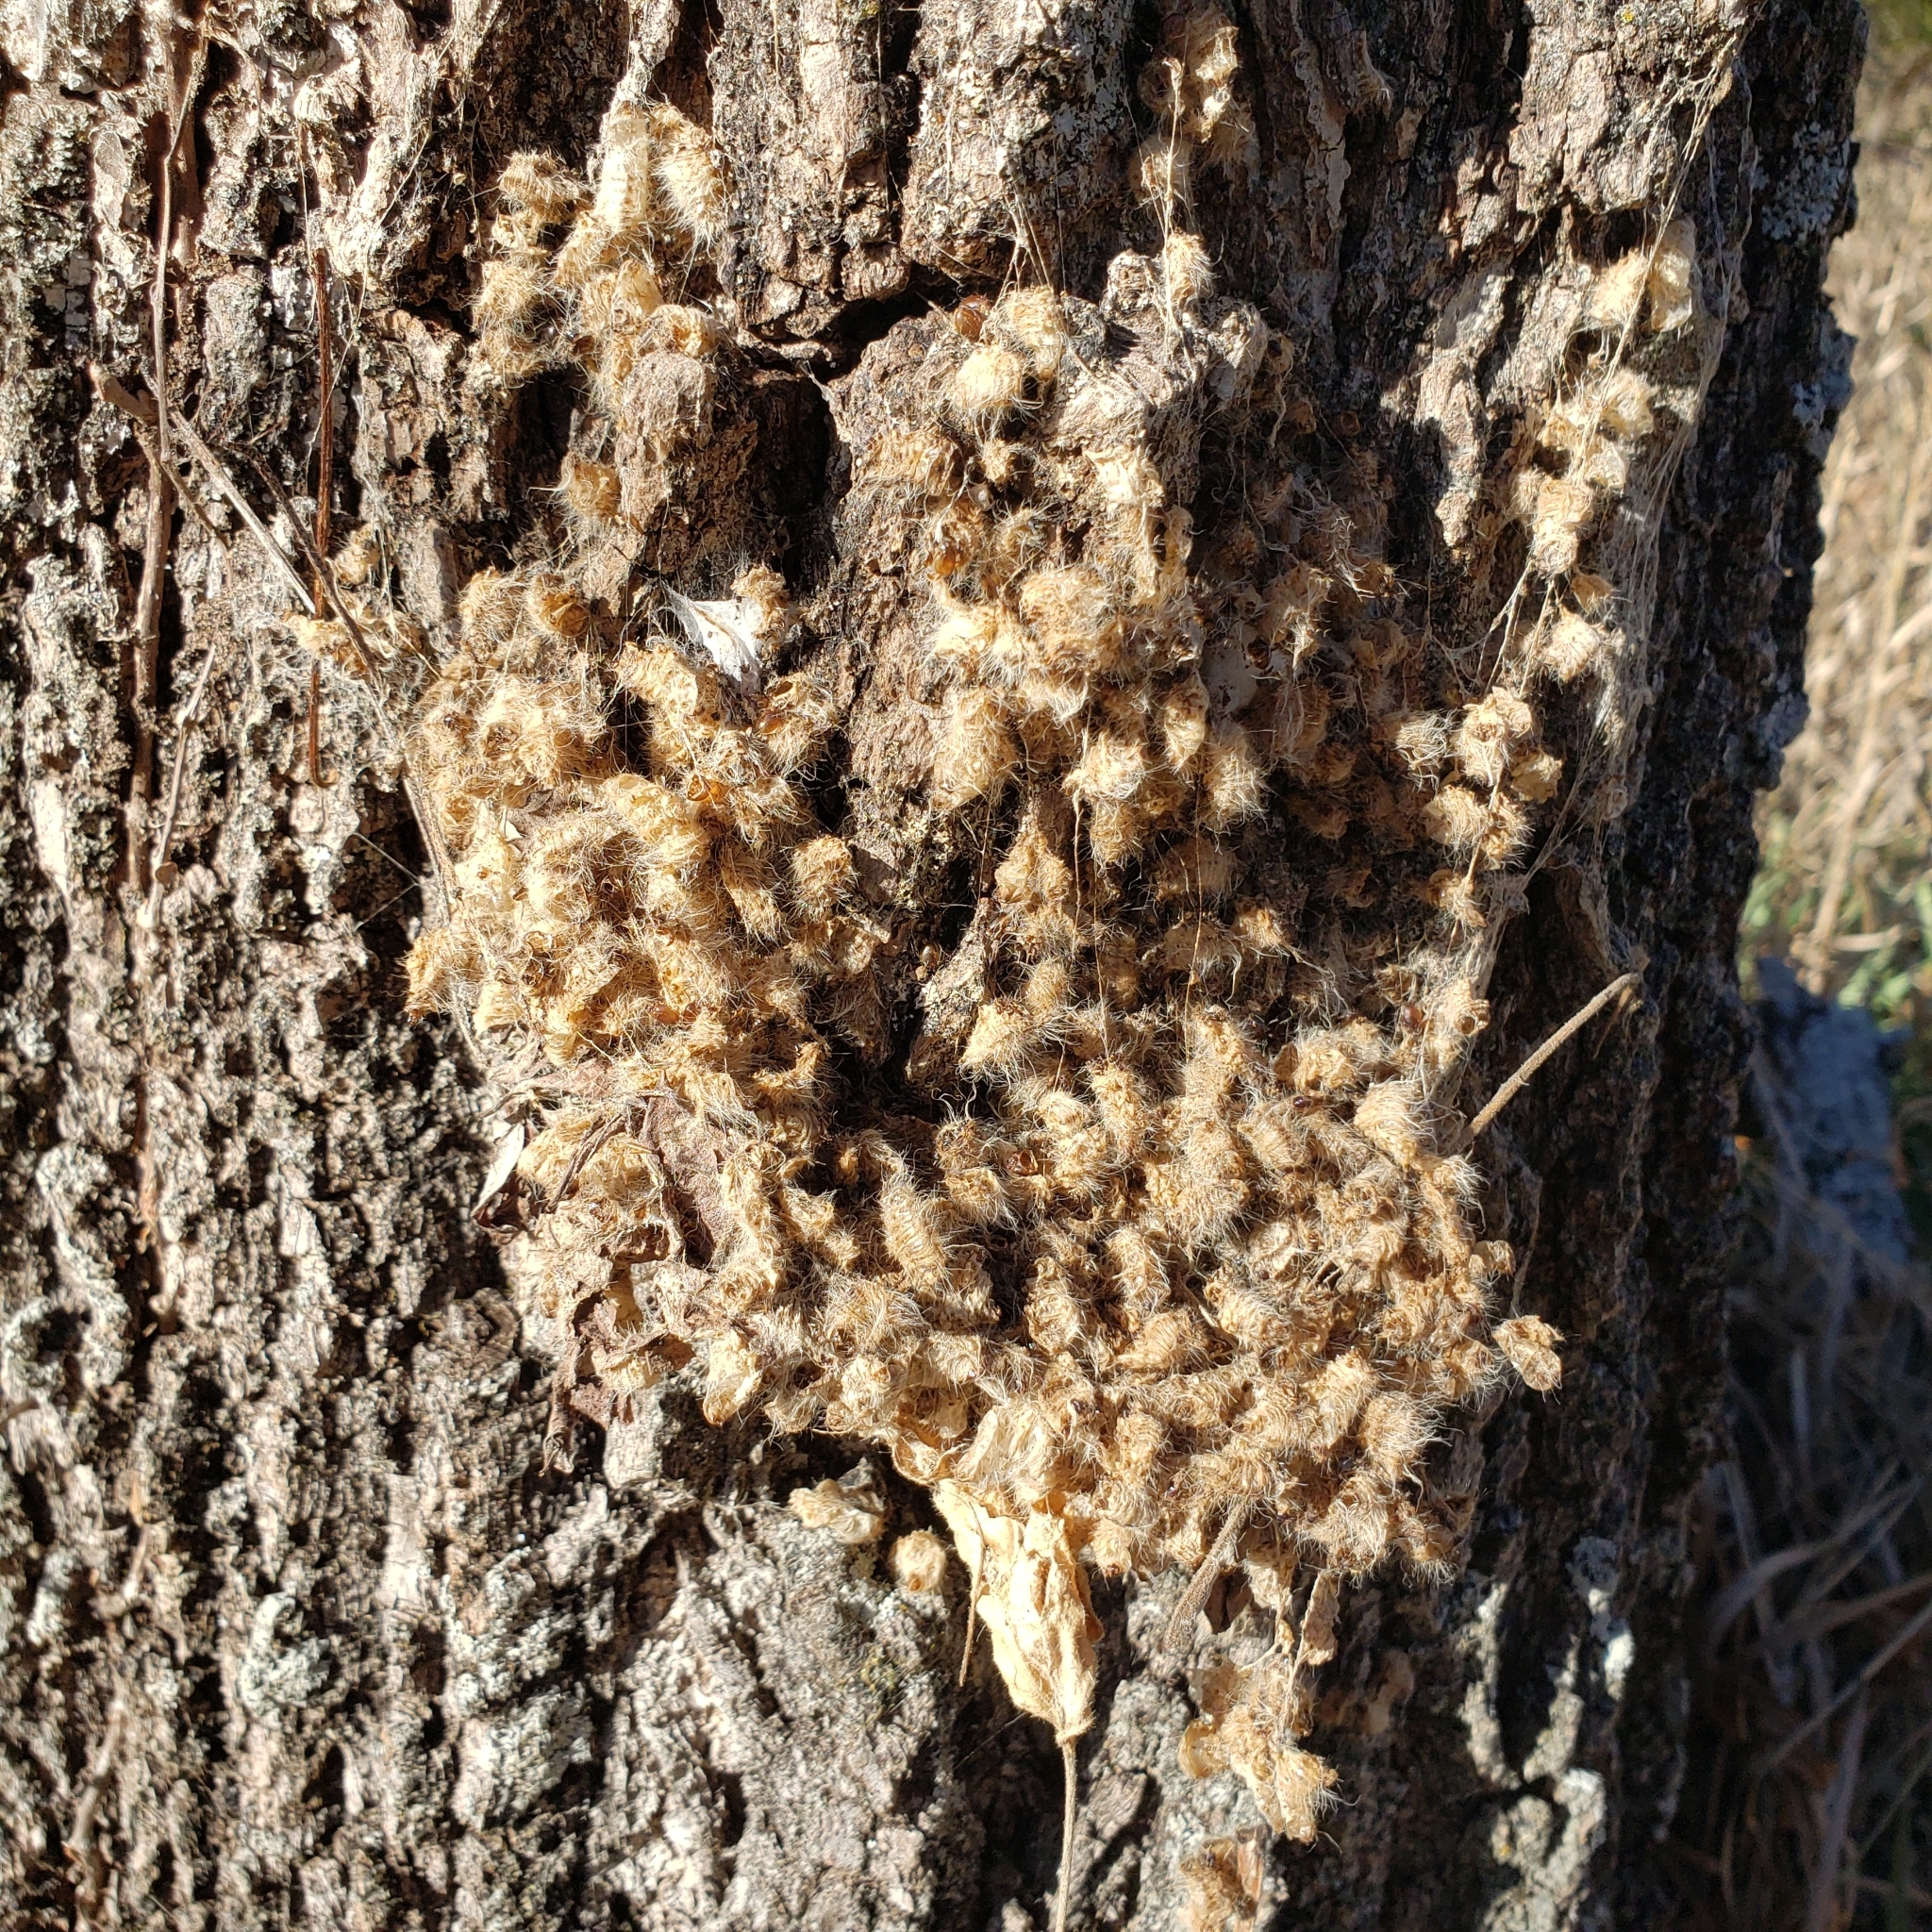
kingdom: Animalia
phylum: Arthropoda
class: Insecta
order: Lepidoptera
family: Notodontidae
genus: Datana
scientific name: Datana integerrima
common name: Walnut caterpillar
